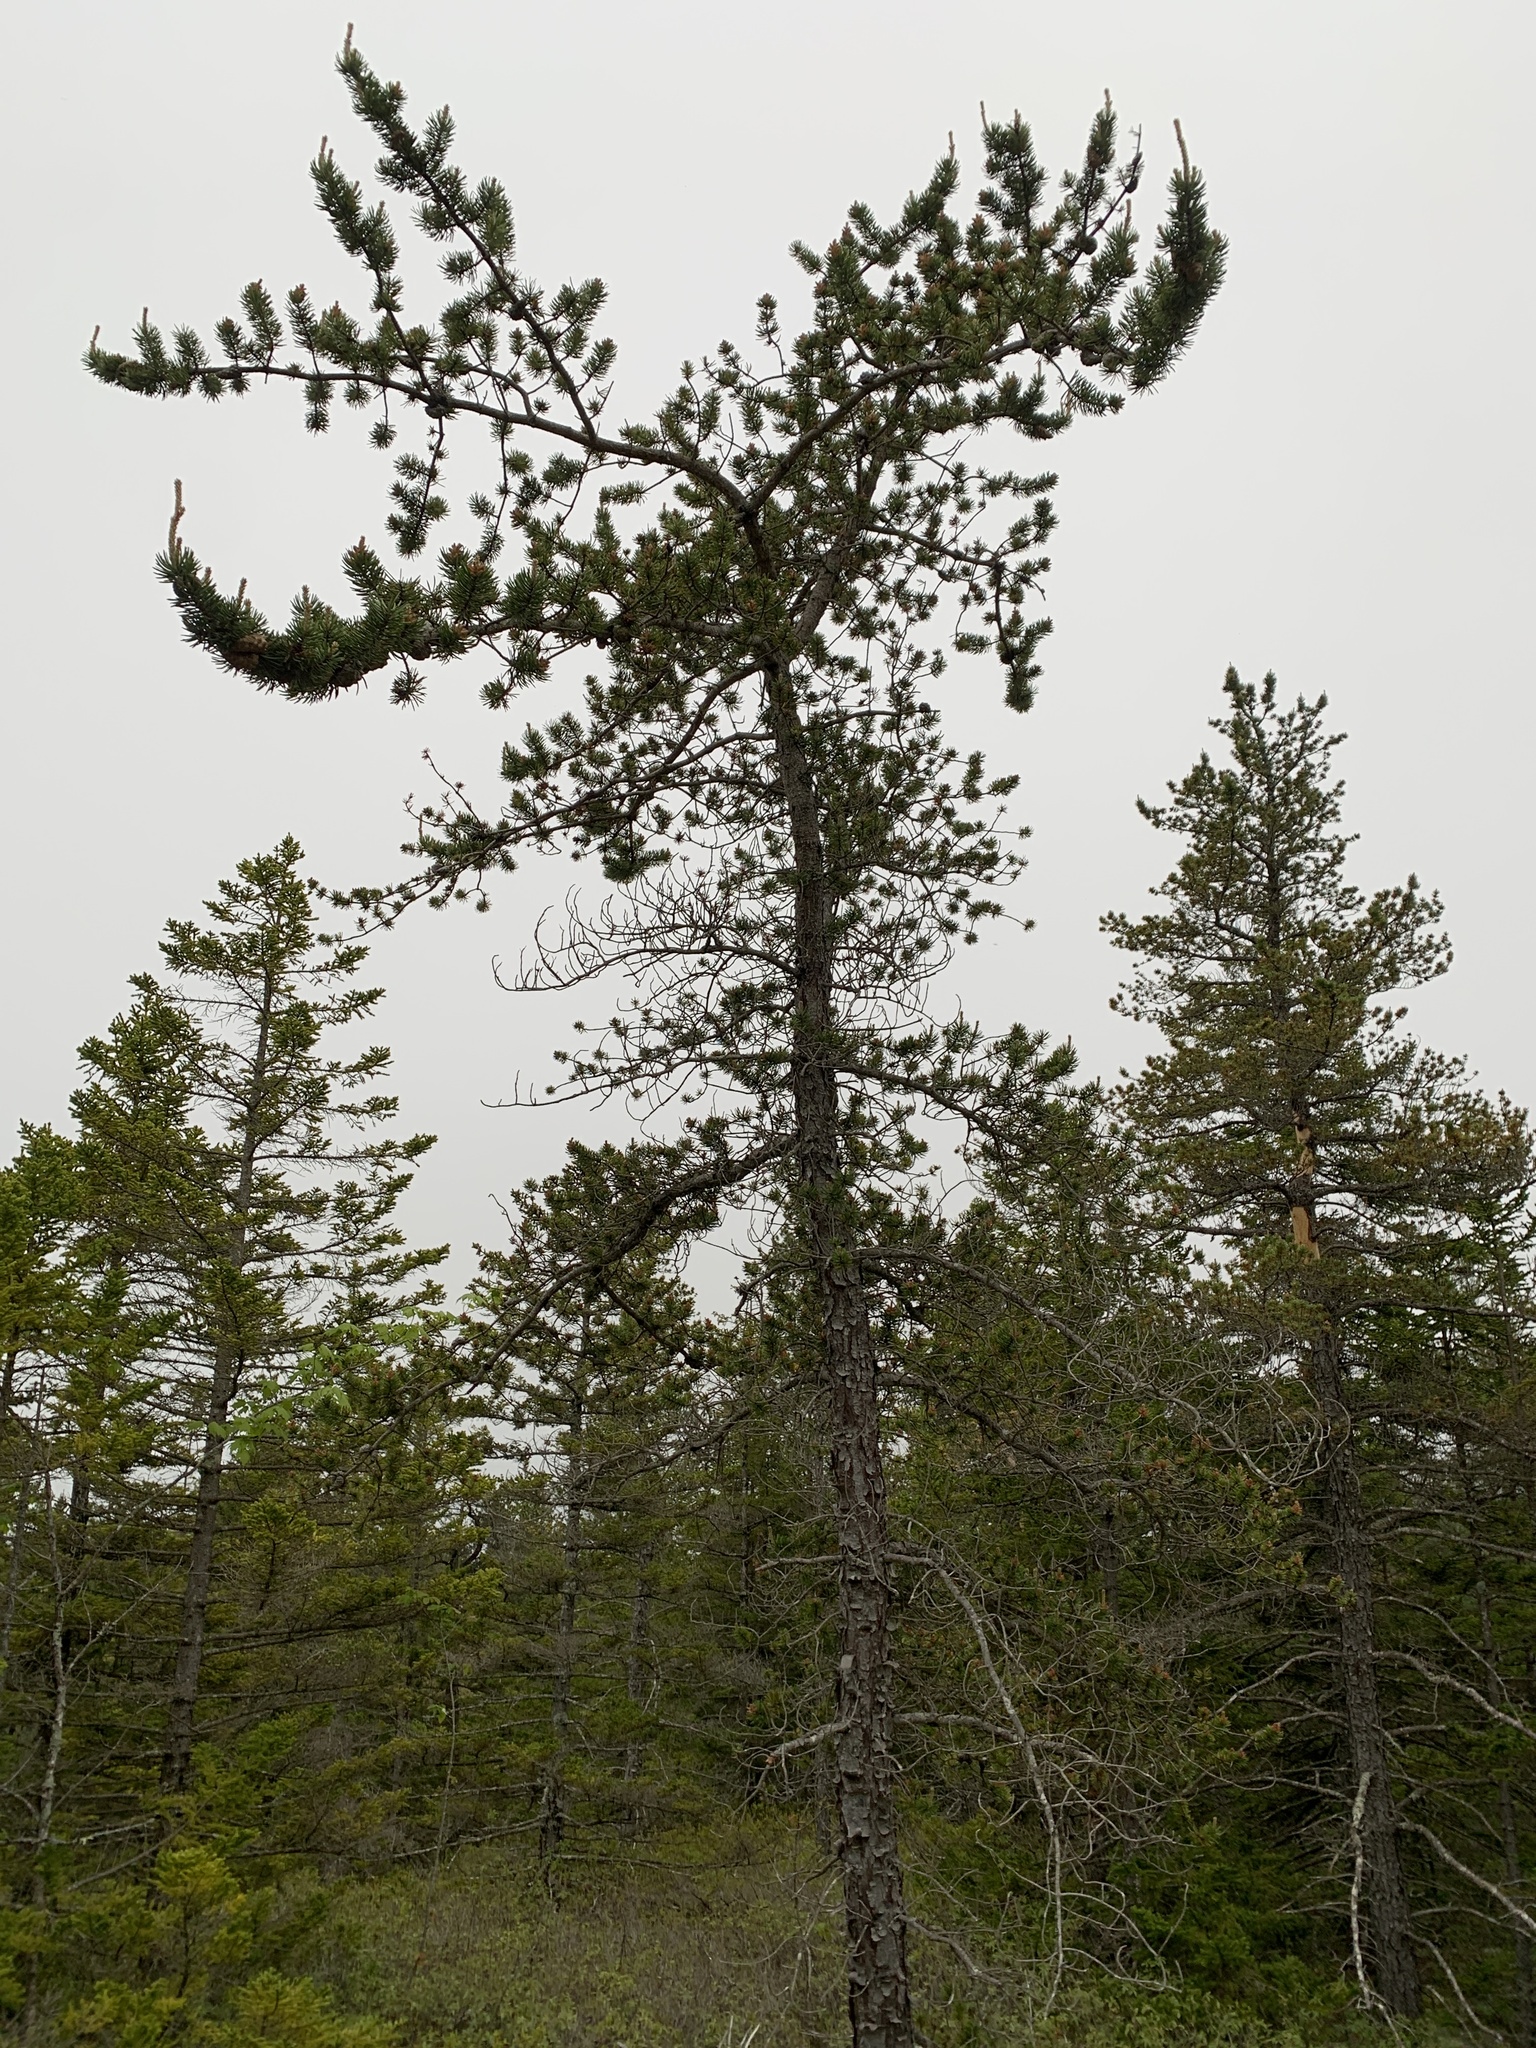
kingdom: Plantae
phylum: Tracheophyta
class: Pinopsida
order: Pinales
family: Pinaceae
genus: Pinus
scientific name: Pinus banksiana
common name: Jack pine
